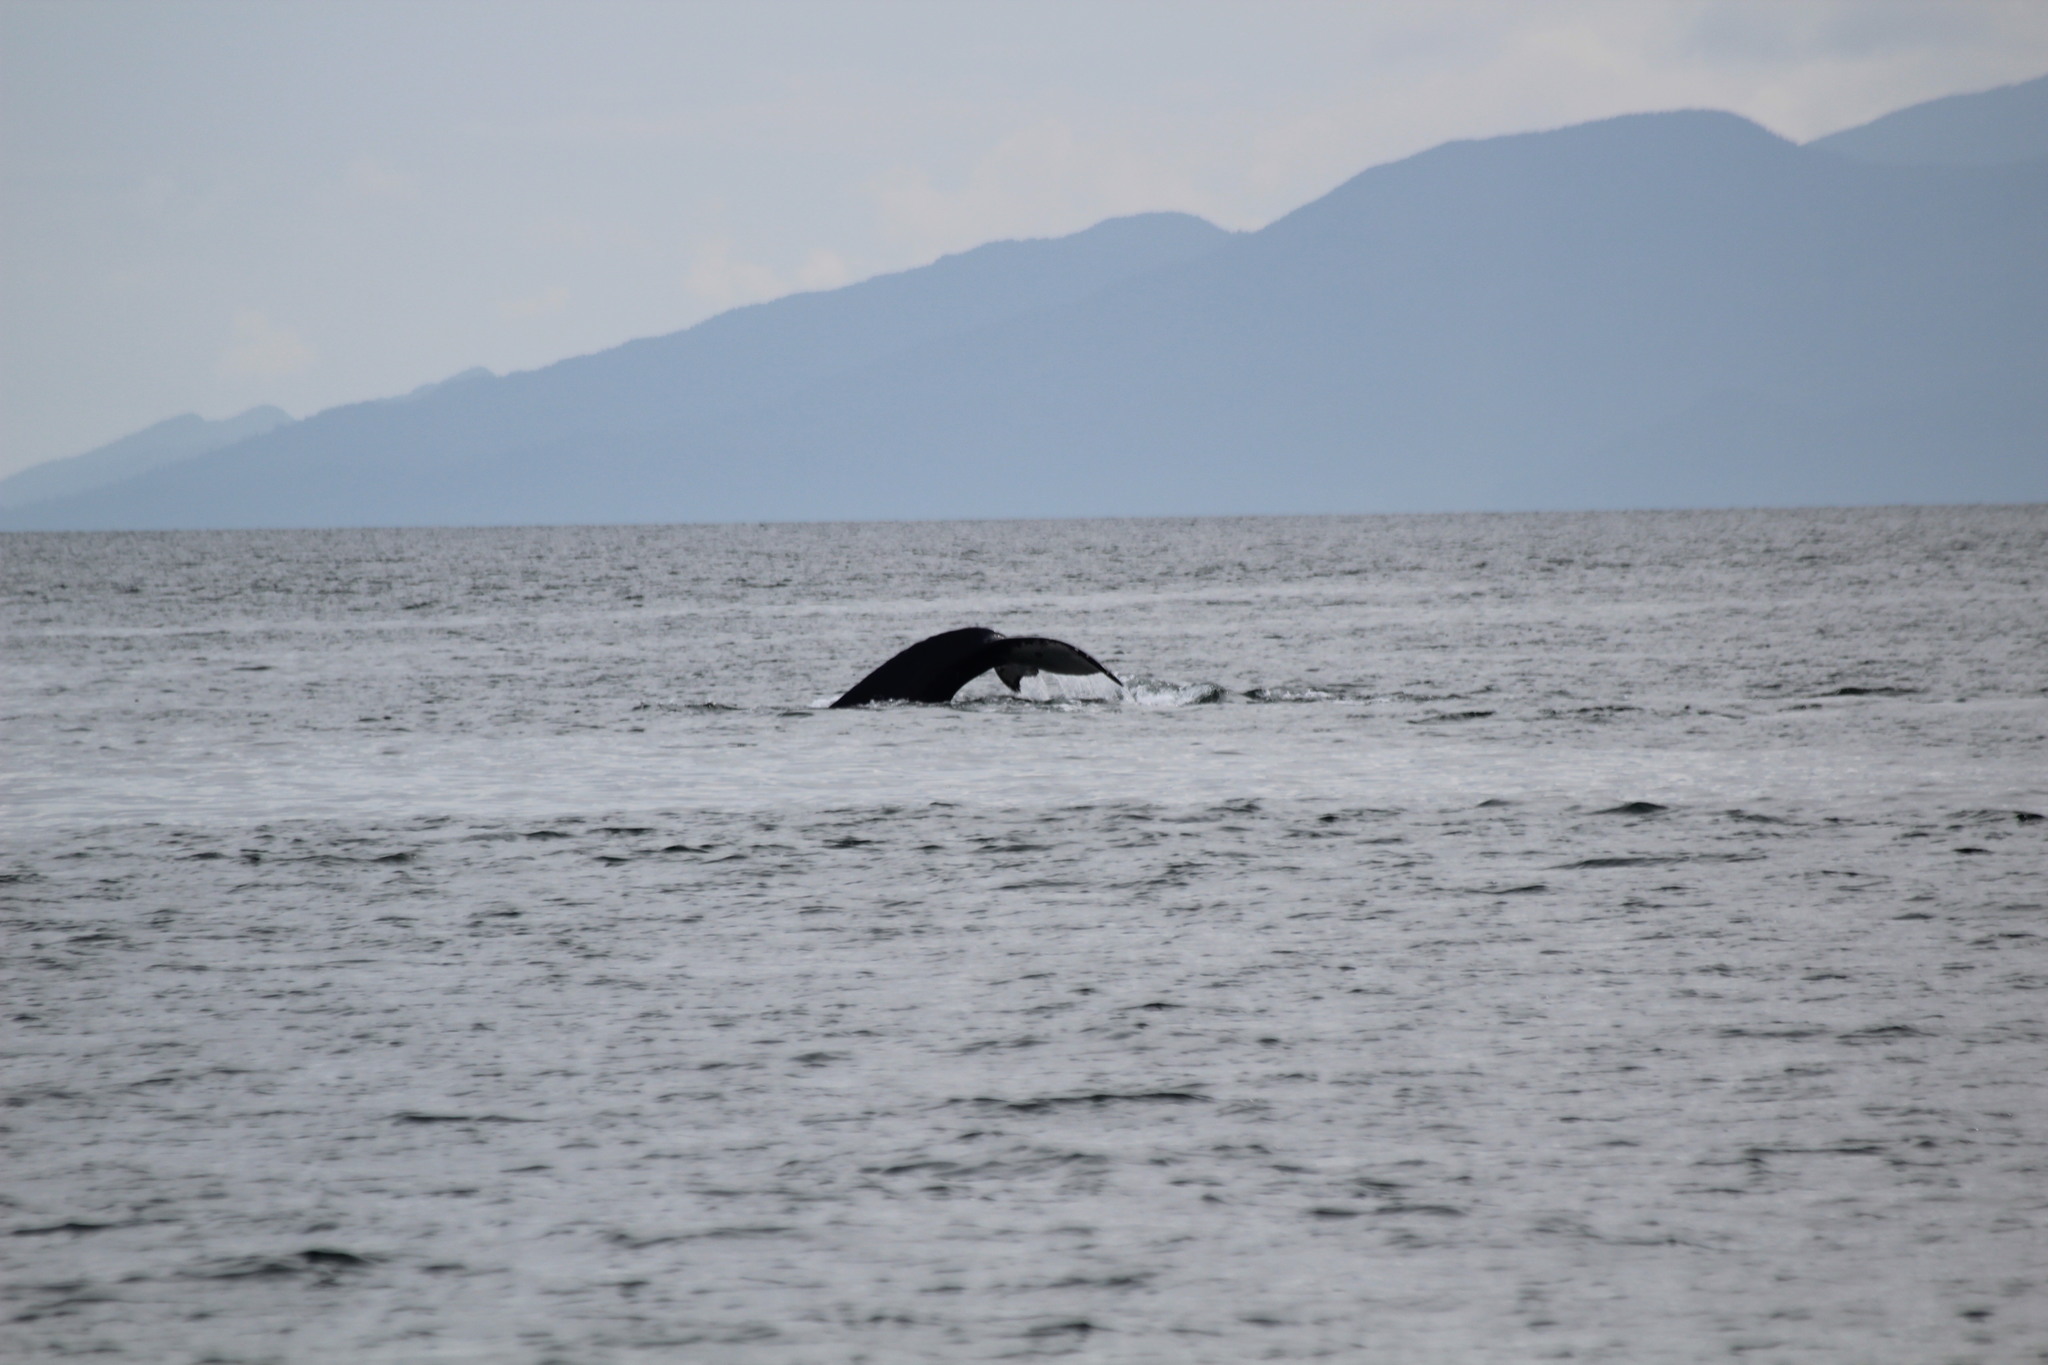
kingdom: Animalia
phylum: Chordata
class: Mammalia
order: Cetacea
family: Balaenopteridae
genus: Megaptera
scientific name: Megaptera novaeangliae
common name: Humpback whale
